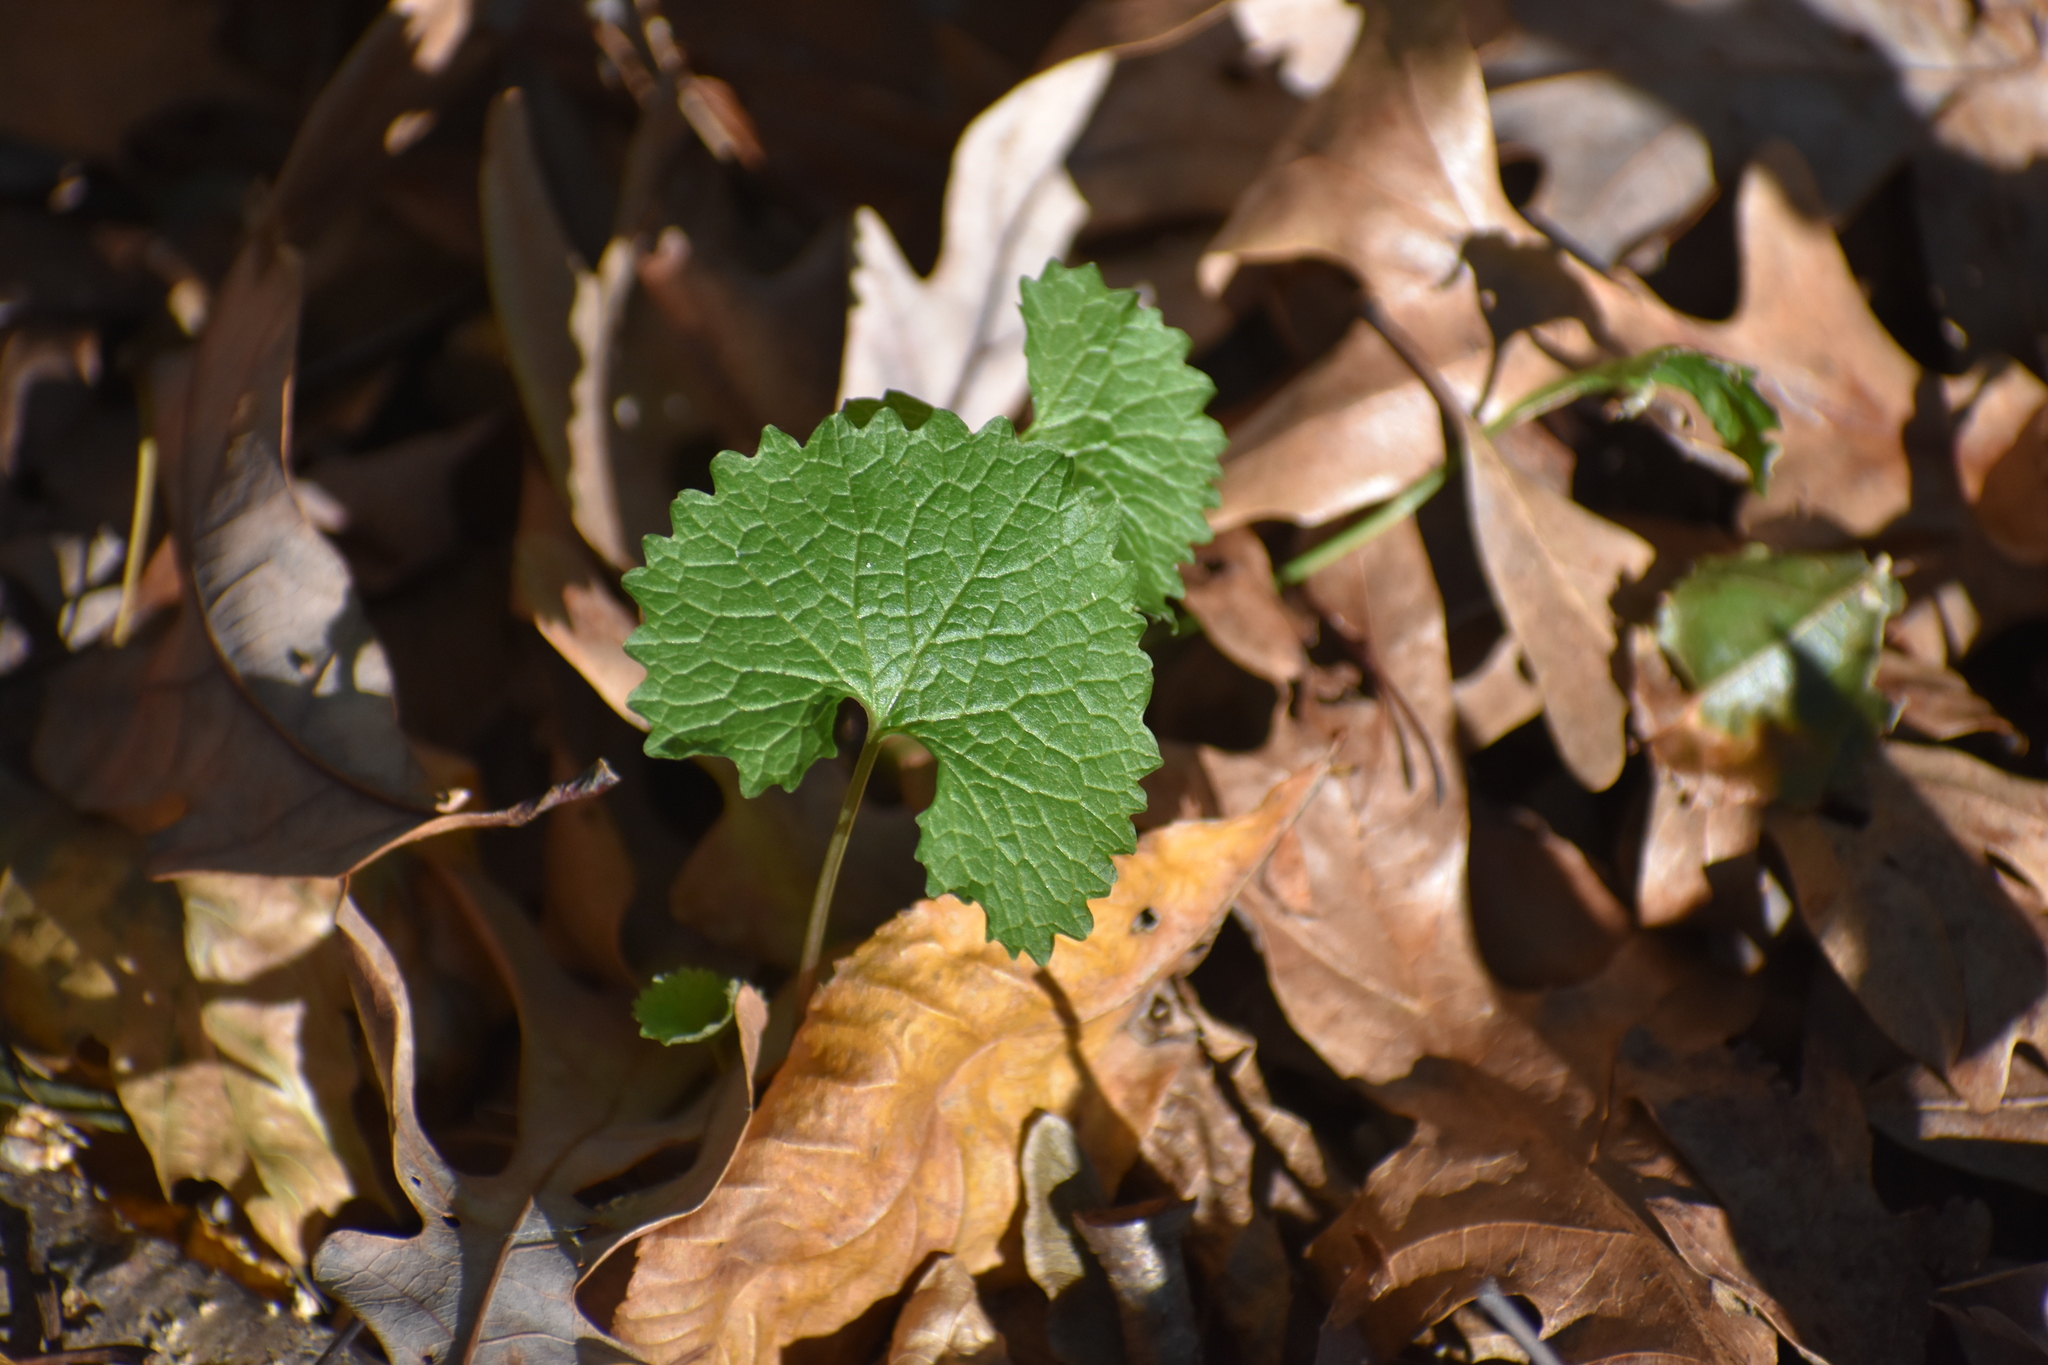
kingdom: Plantae
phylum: Tracheophyta
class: Magnoliopsida
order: Brassicales
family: Brassicaceae
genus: Alliaria
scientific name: Alliaria petiolata
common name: Garlic mustard
